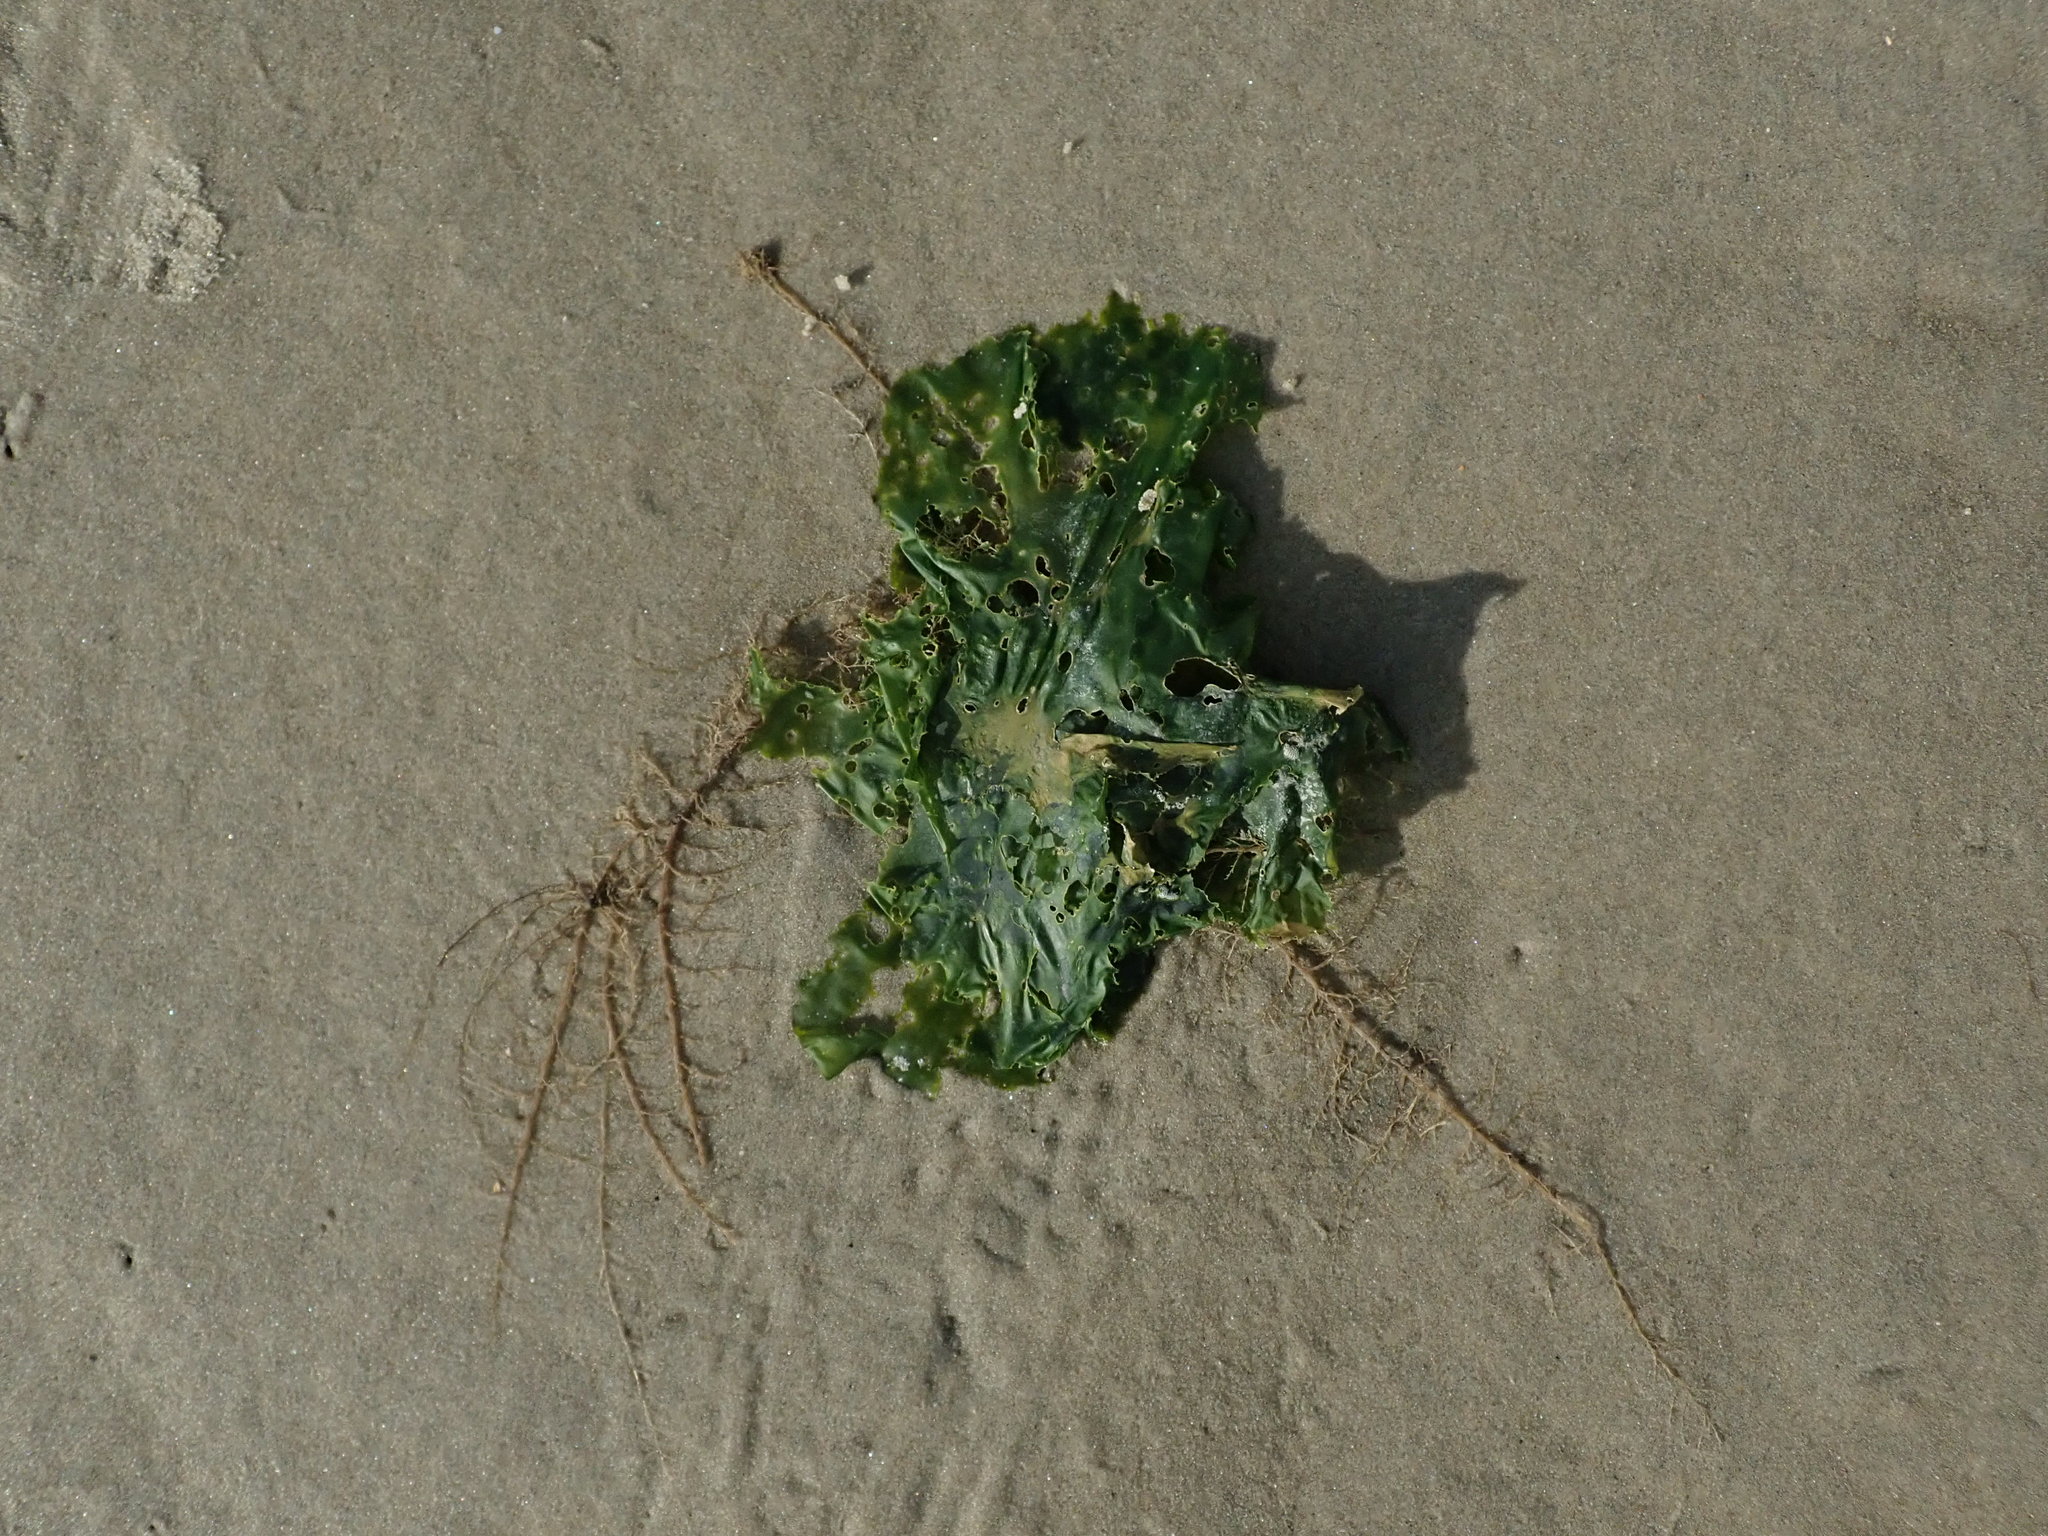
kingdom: Plantae
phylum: Chlorophyta
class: Ulvophyceae
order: Ulvales
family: Ulvaceae
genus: Ulva
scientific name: Ulva lactuca
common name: Sea lettuce
